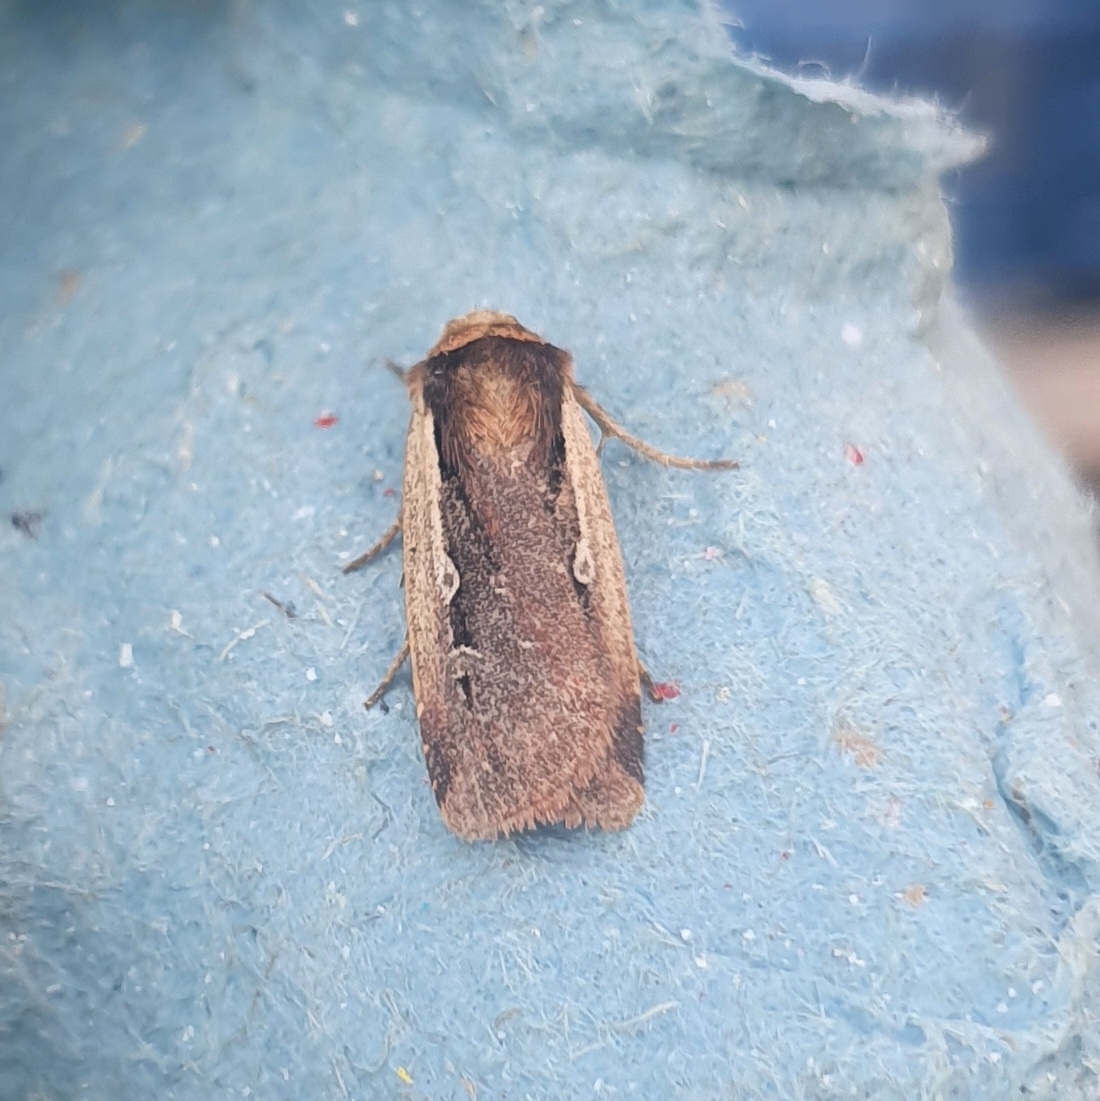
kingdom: Animalia
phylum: Arthropoda
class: Insecta
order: Lepidoptera
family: Noctuidae
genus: Ochropleura
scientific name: Ochropleura plecta
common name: Flame shoulder
